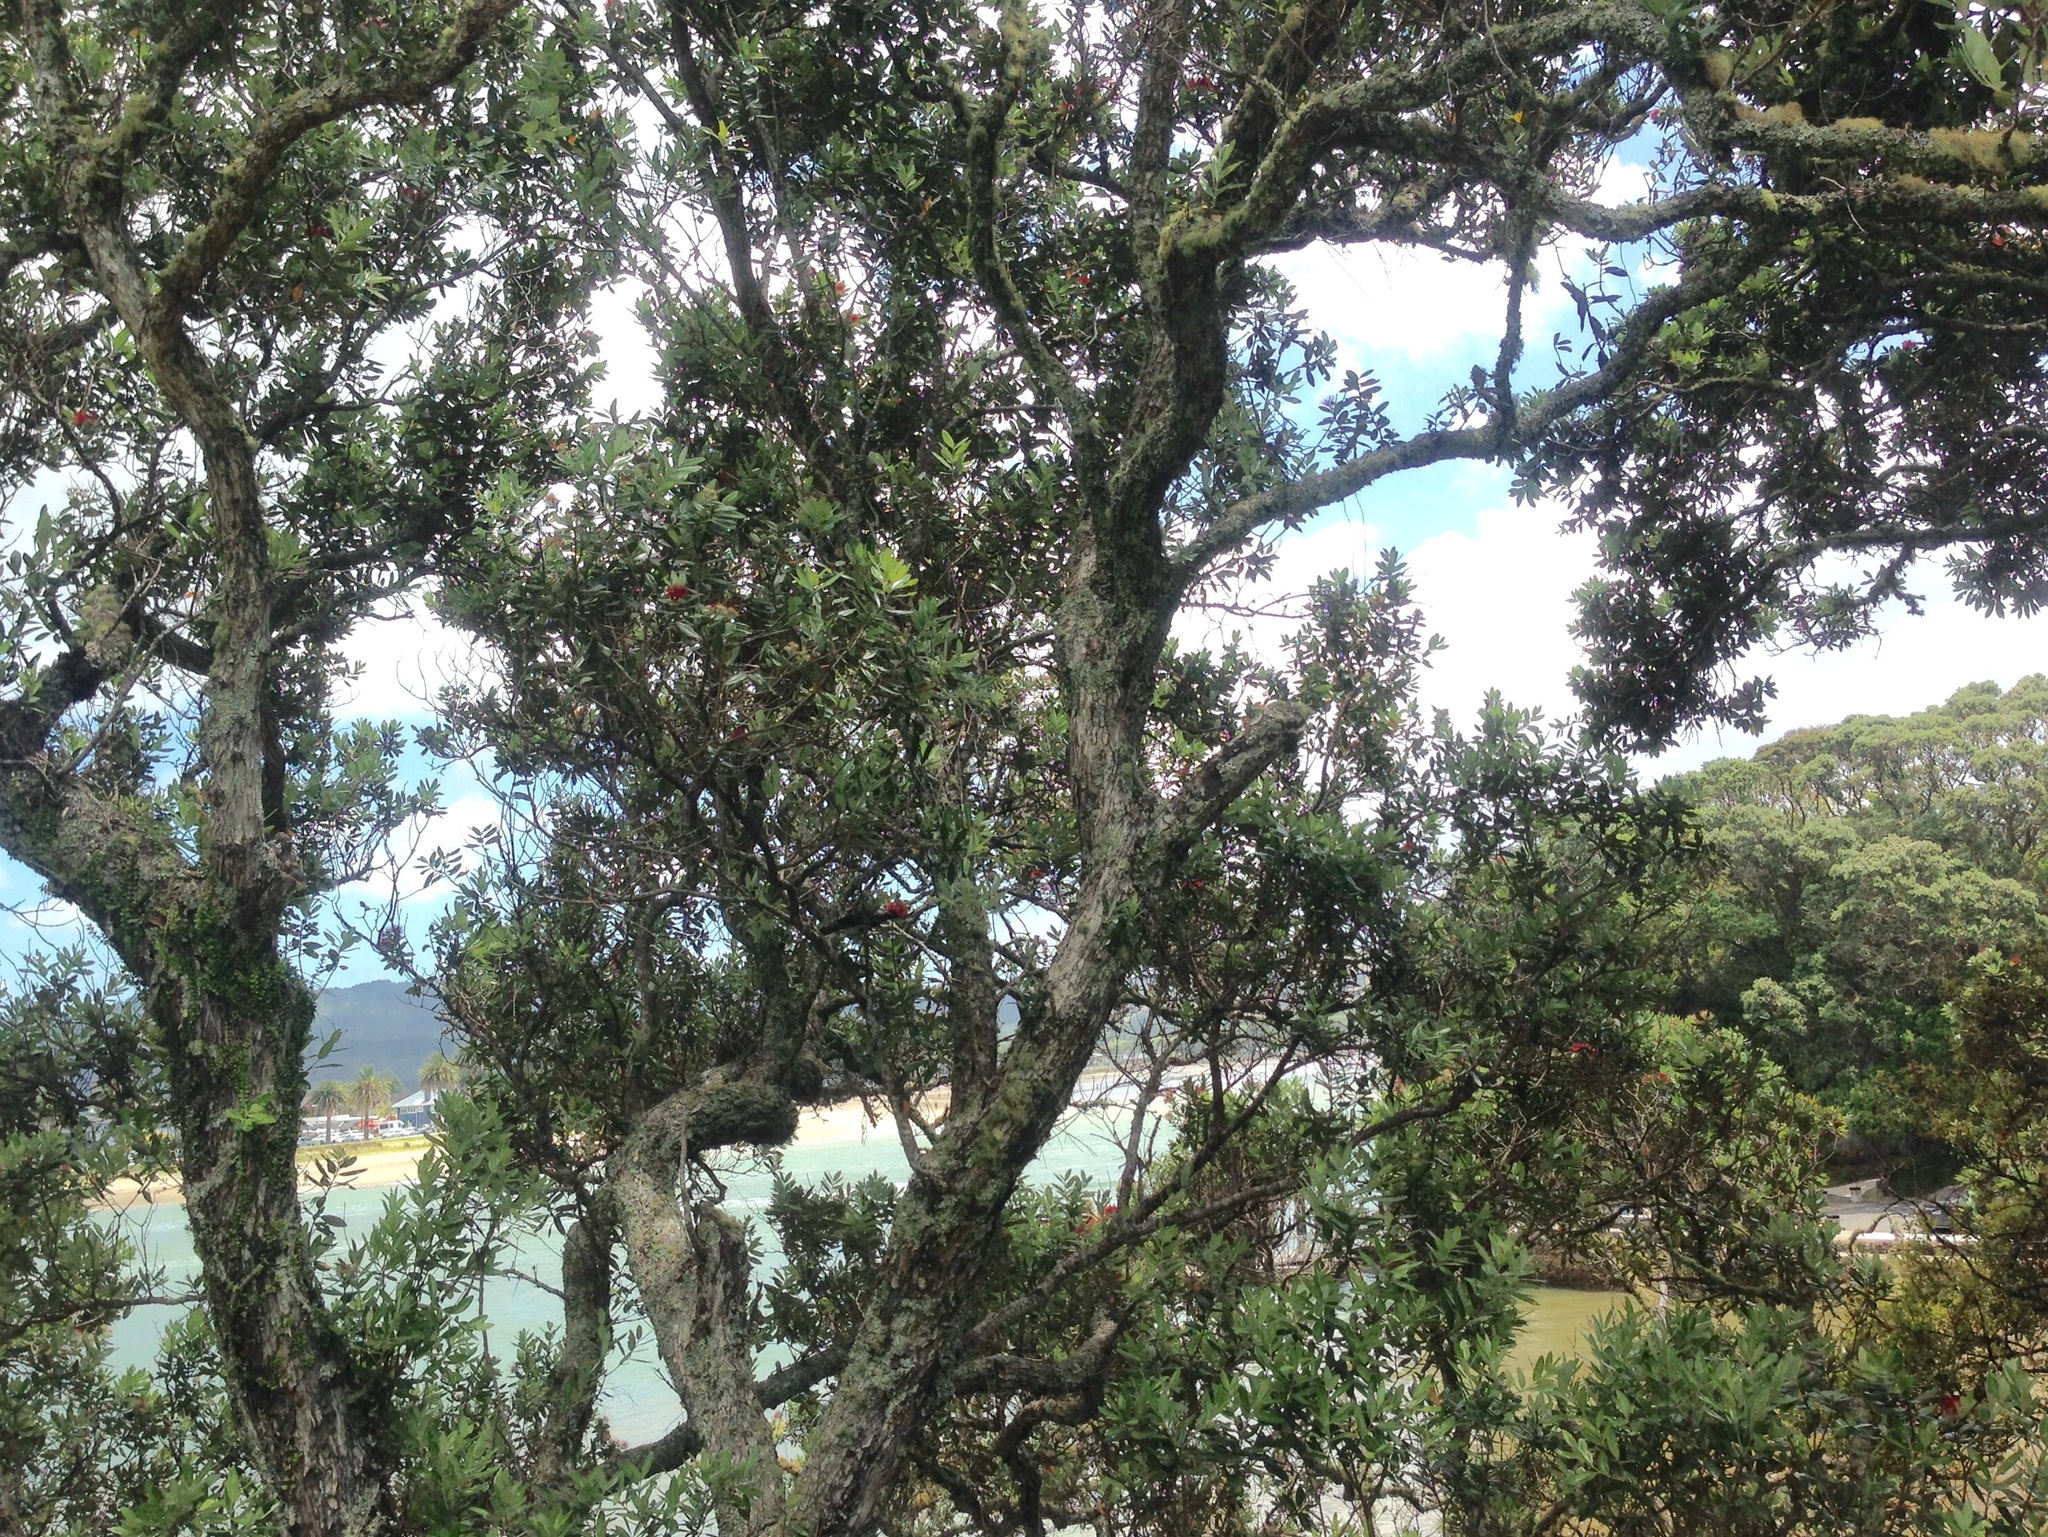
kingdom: Plantae
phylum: Tracheophyta
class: Magnoliopsida
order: Myrtales
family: Myrtaceae
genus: Metrosideros
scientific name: Metrosideros excelsa
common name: New zealand christmastree
